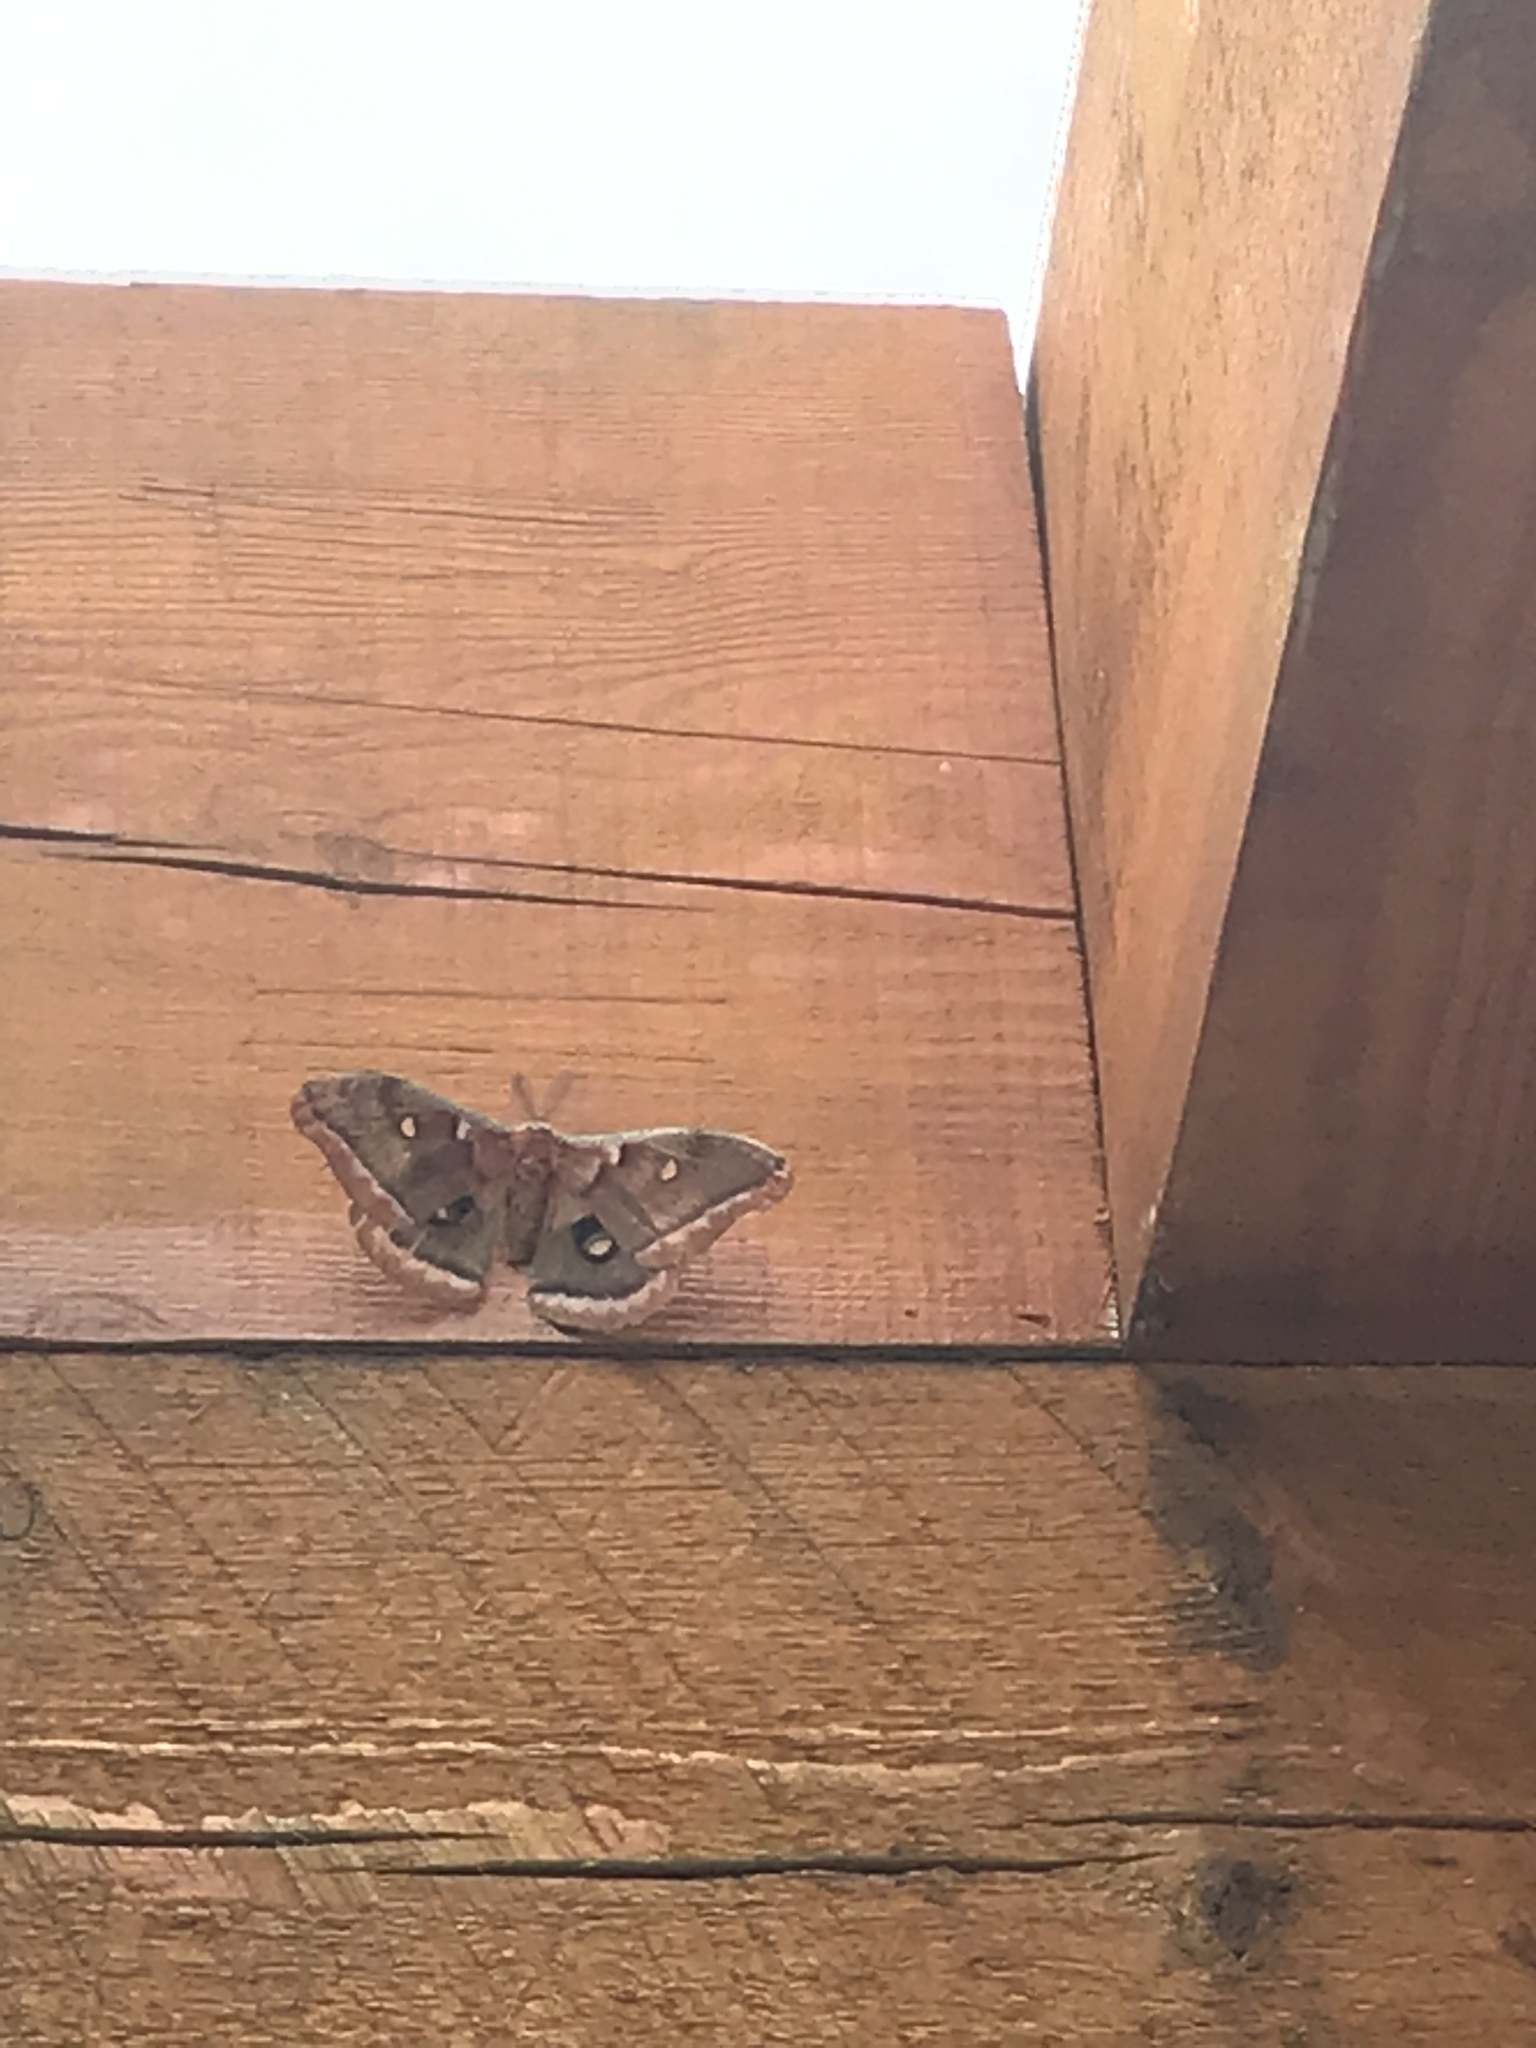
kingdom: Animalia
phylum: Arthropoda
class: Insecta
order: Lepidoptera
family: Saturniidae
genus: Antheraea
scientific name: Antheraea polyphemus
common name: Polyphemus moth
